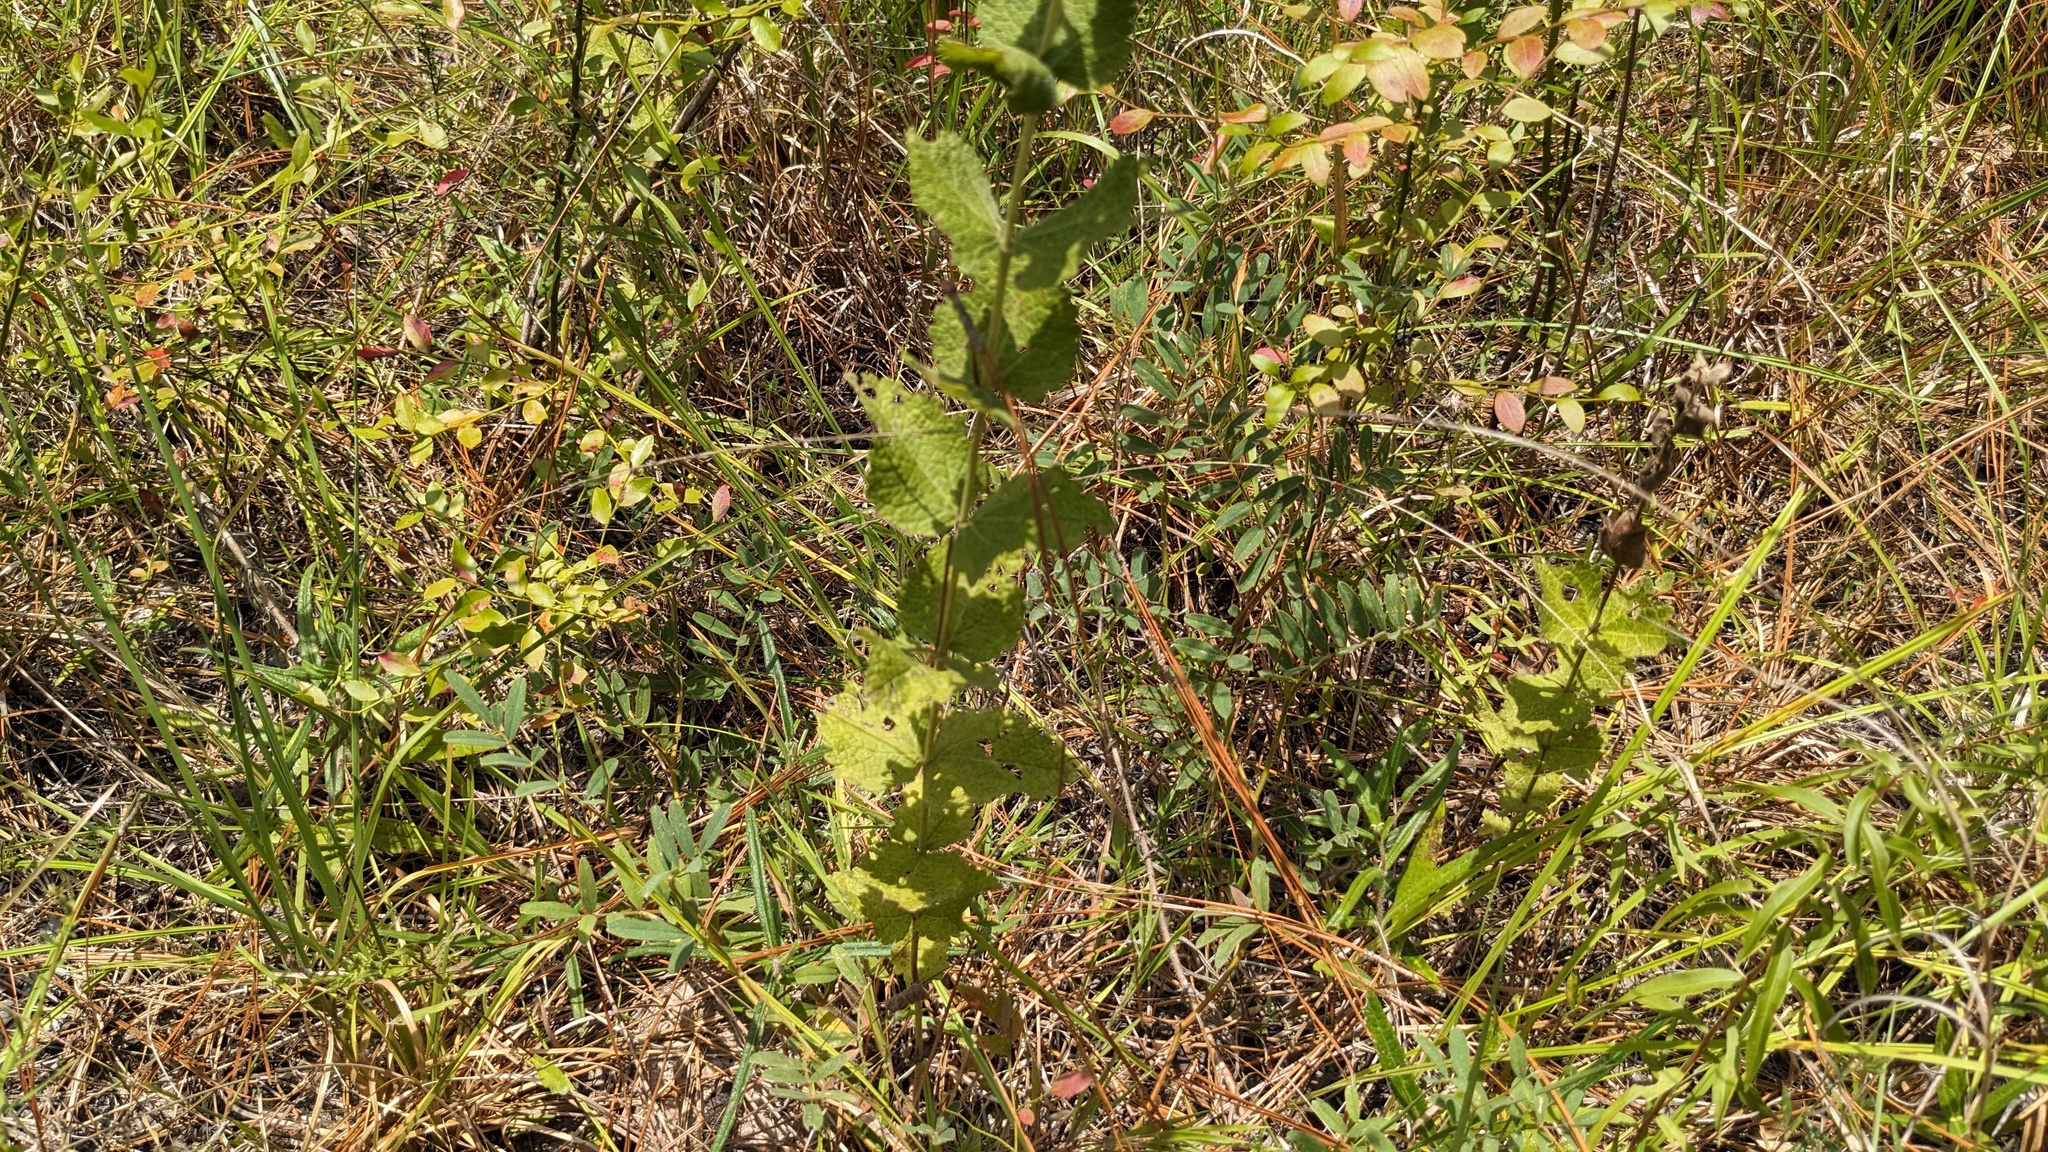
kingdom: Plantae
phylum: Tracheophyta
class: Magnoliopsida
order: Asterales
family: Asteraceae
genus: Eupatorium
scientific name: Eupatorium rotundifolium
